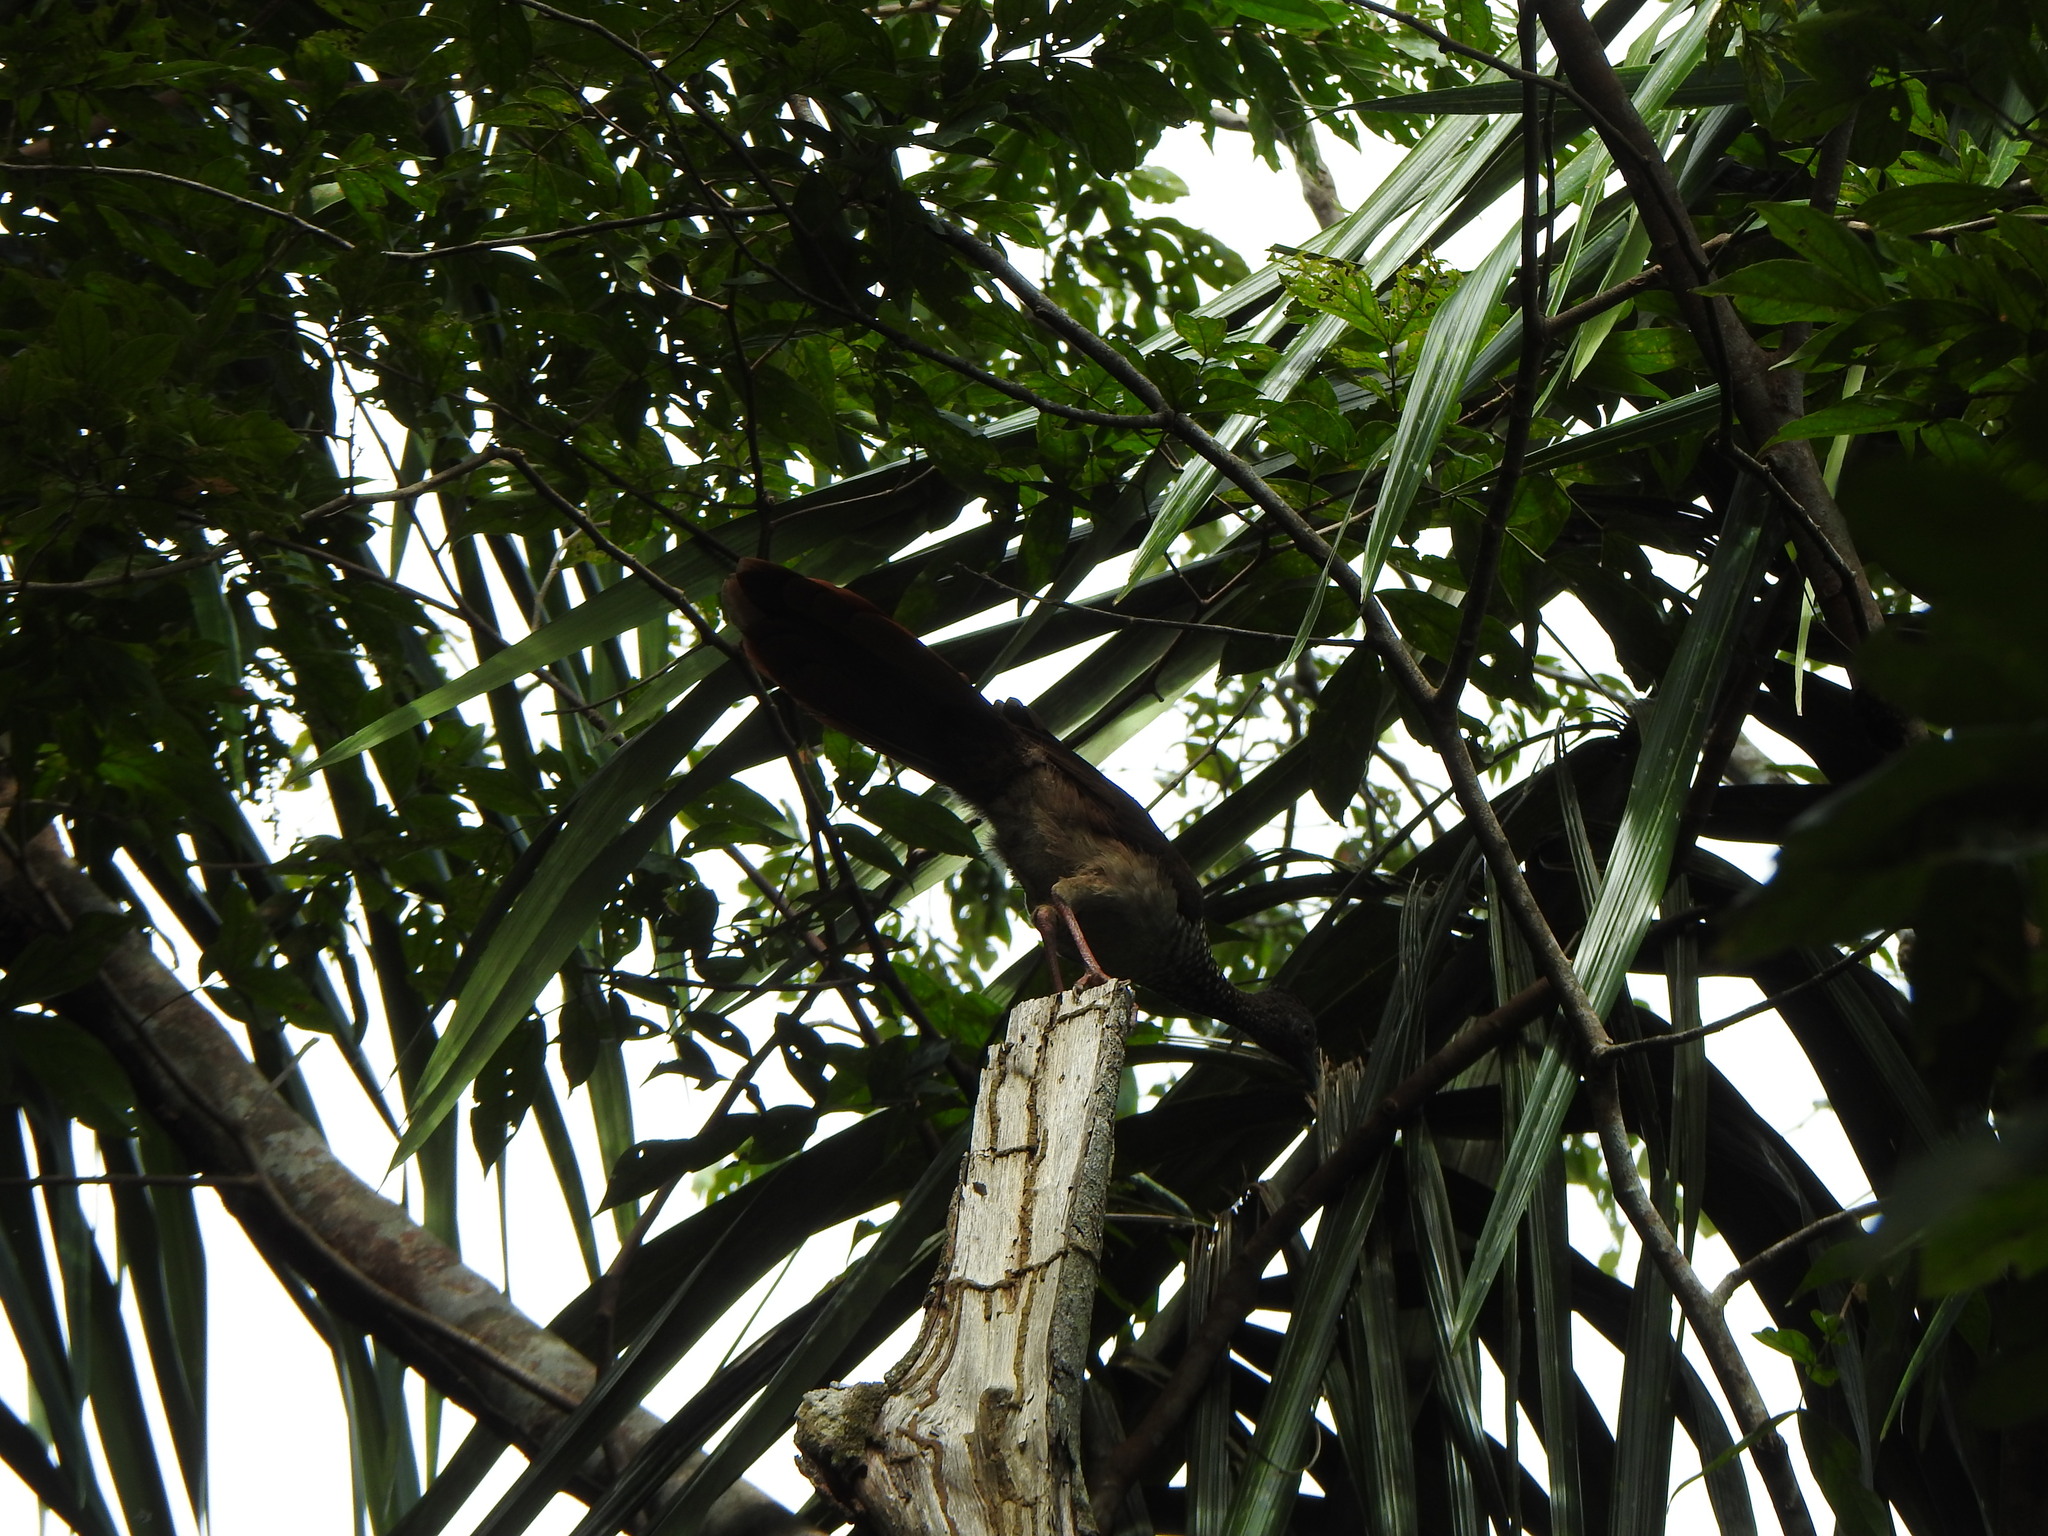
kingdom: Animalia
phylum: Chordata
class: Aves
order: Galliformes
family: Cracidae
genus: Ortalis
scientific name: Ortalis guttata
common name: Speckled chachalaca
